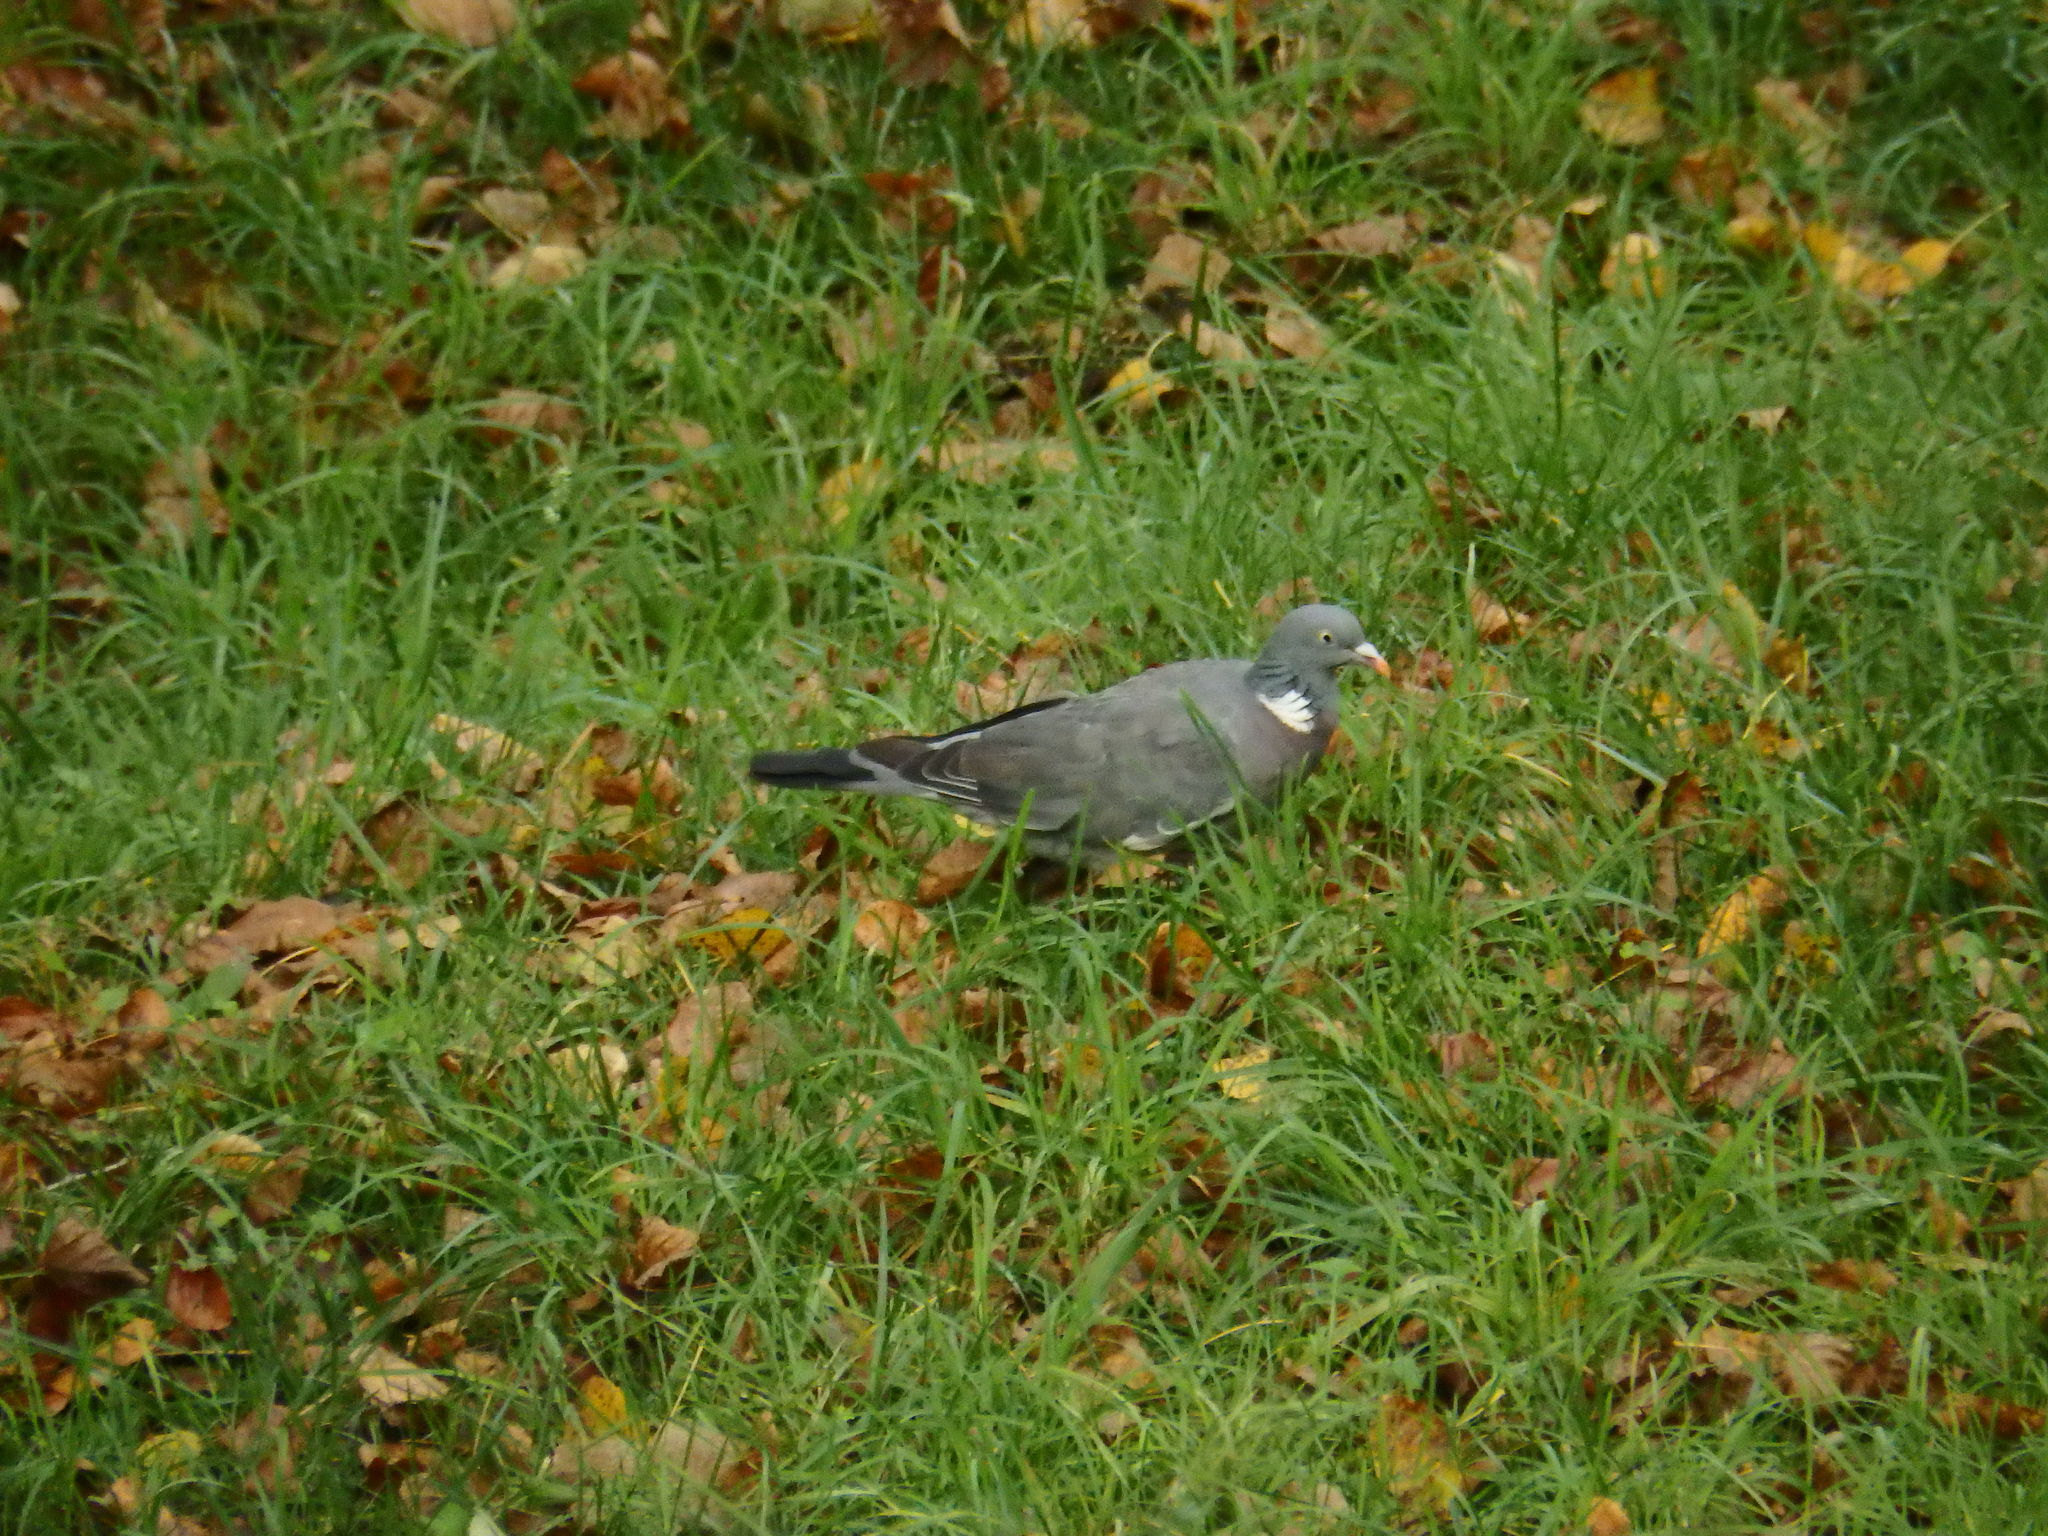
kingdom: Animalia
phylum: Chordata
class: Aves
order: Columbiformes
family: Columbidae
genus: Columba
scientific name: Columba palumbus
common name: Common wood pigeon
